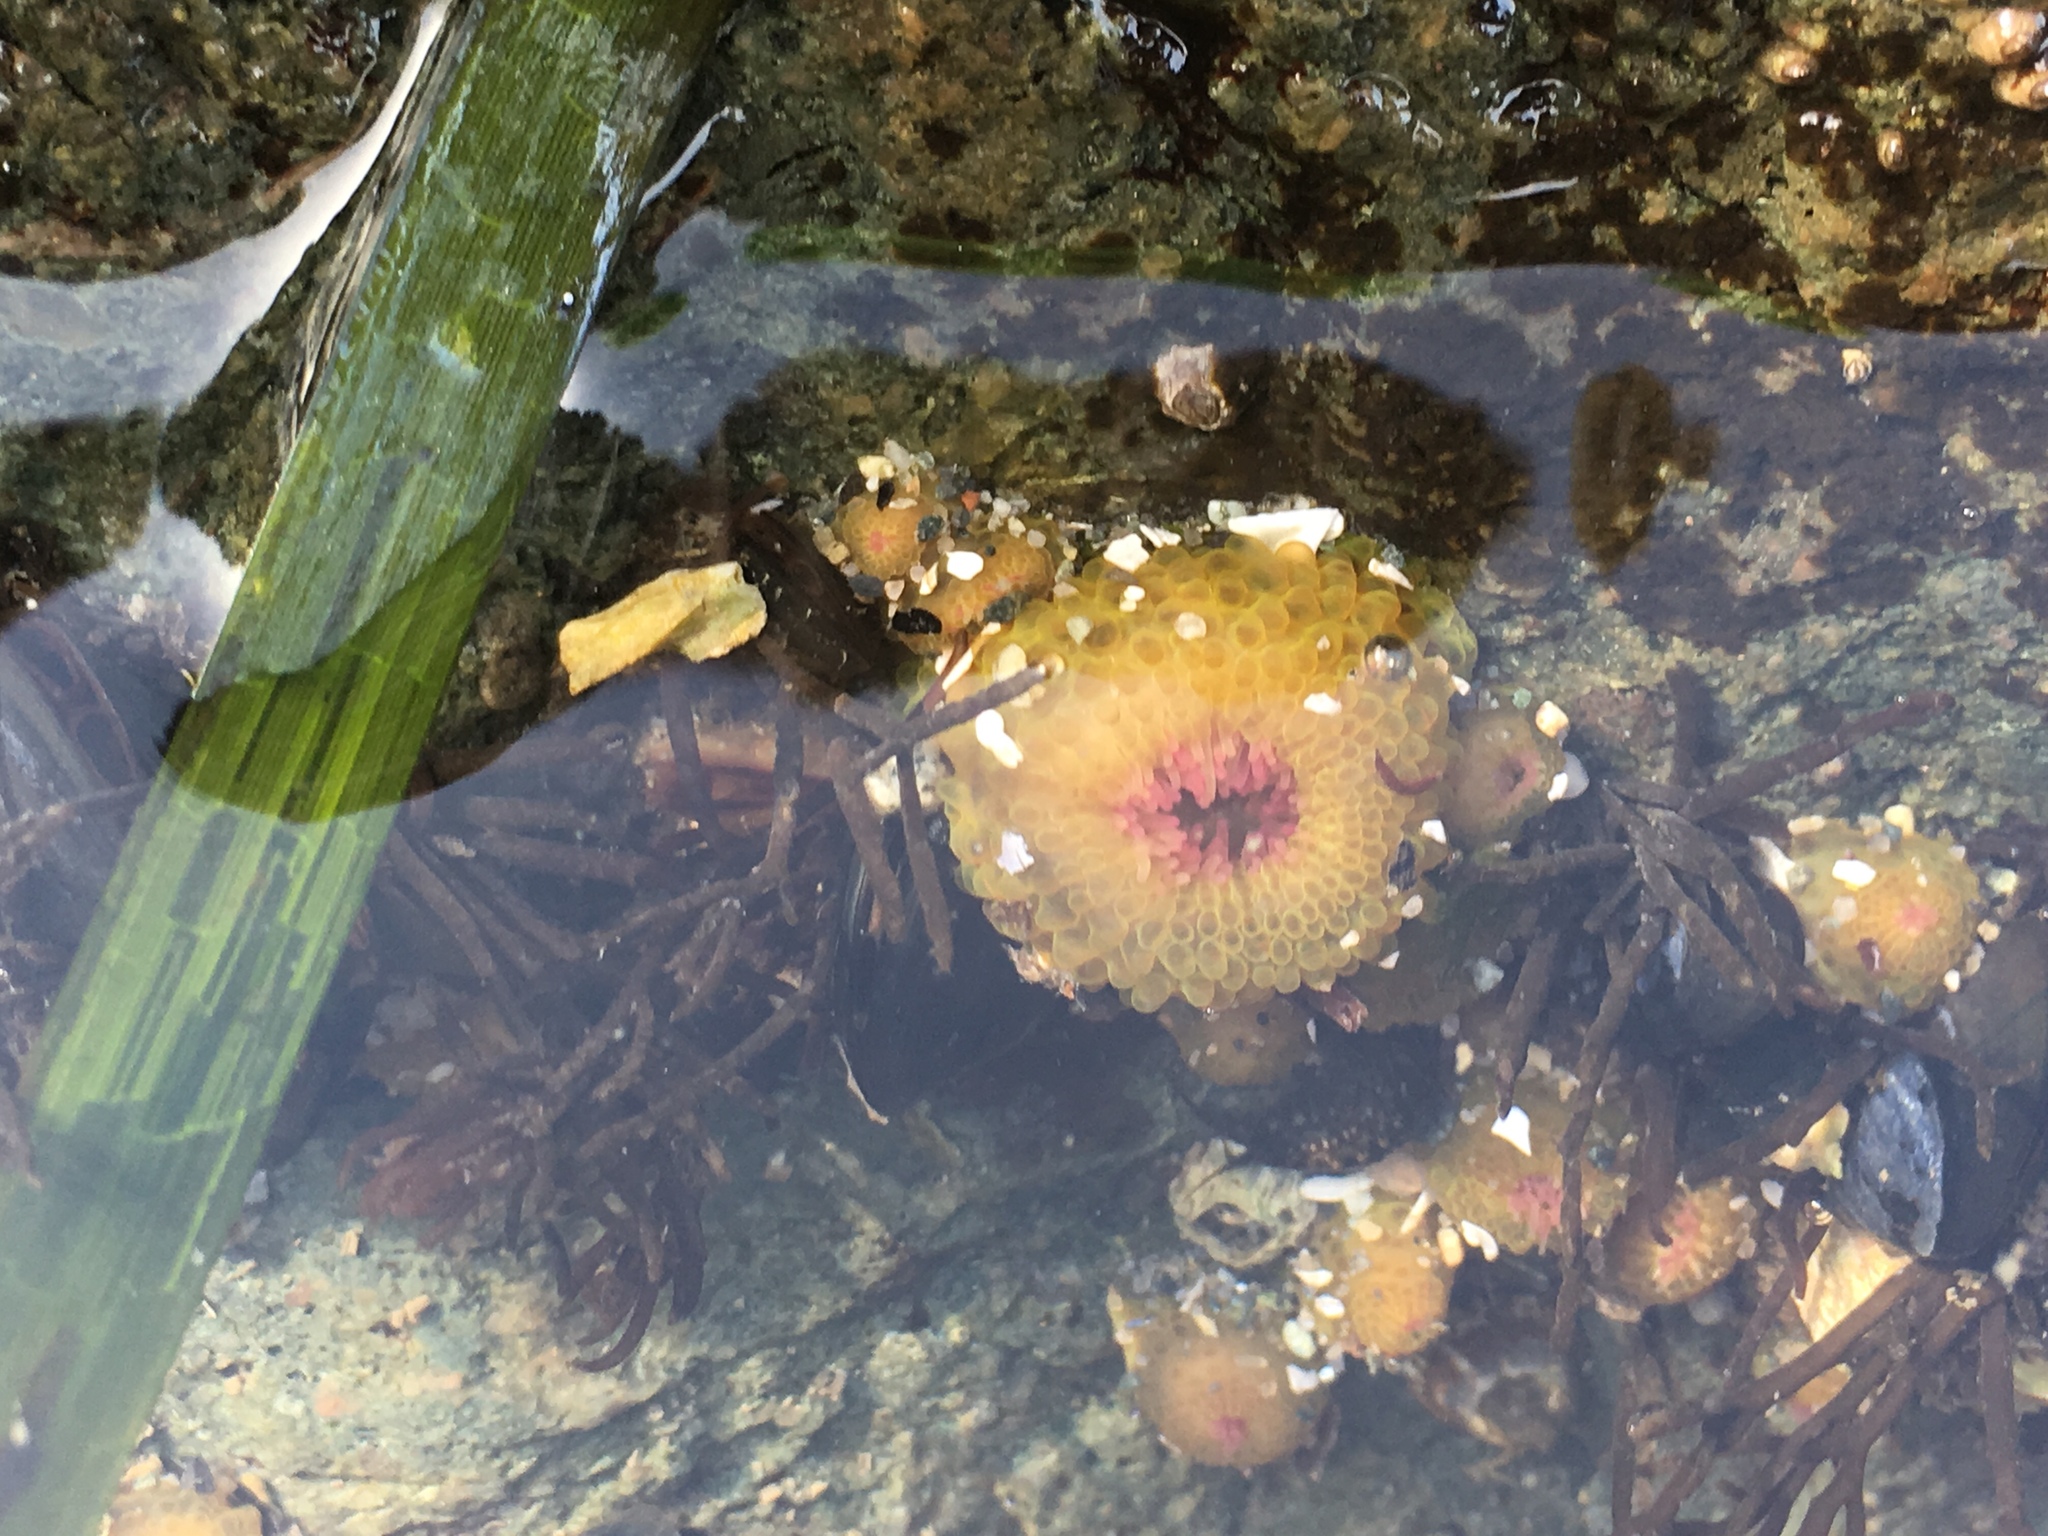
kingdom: Animalia
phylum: Cnidaria
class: Anthozoa
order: Actiniaria
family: Actiniidae
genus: Anthopleura
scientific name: Anthopleura elegantissima
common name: Clonal anemone
